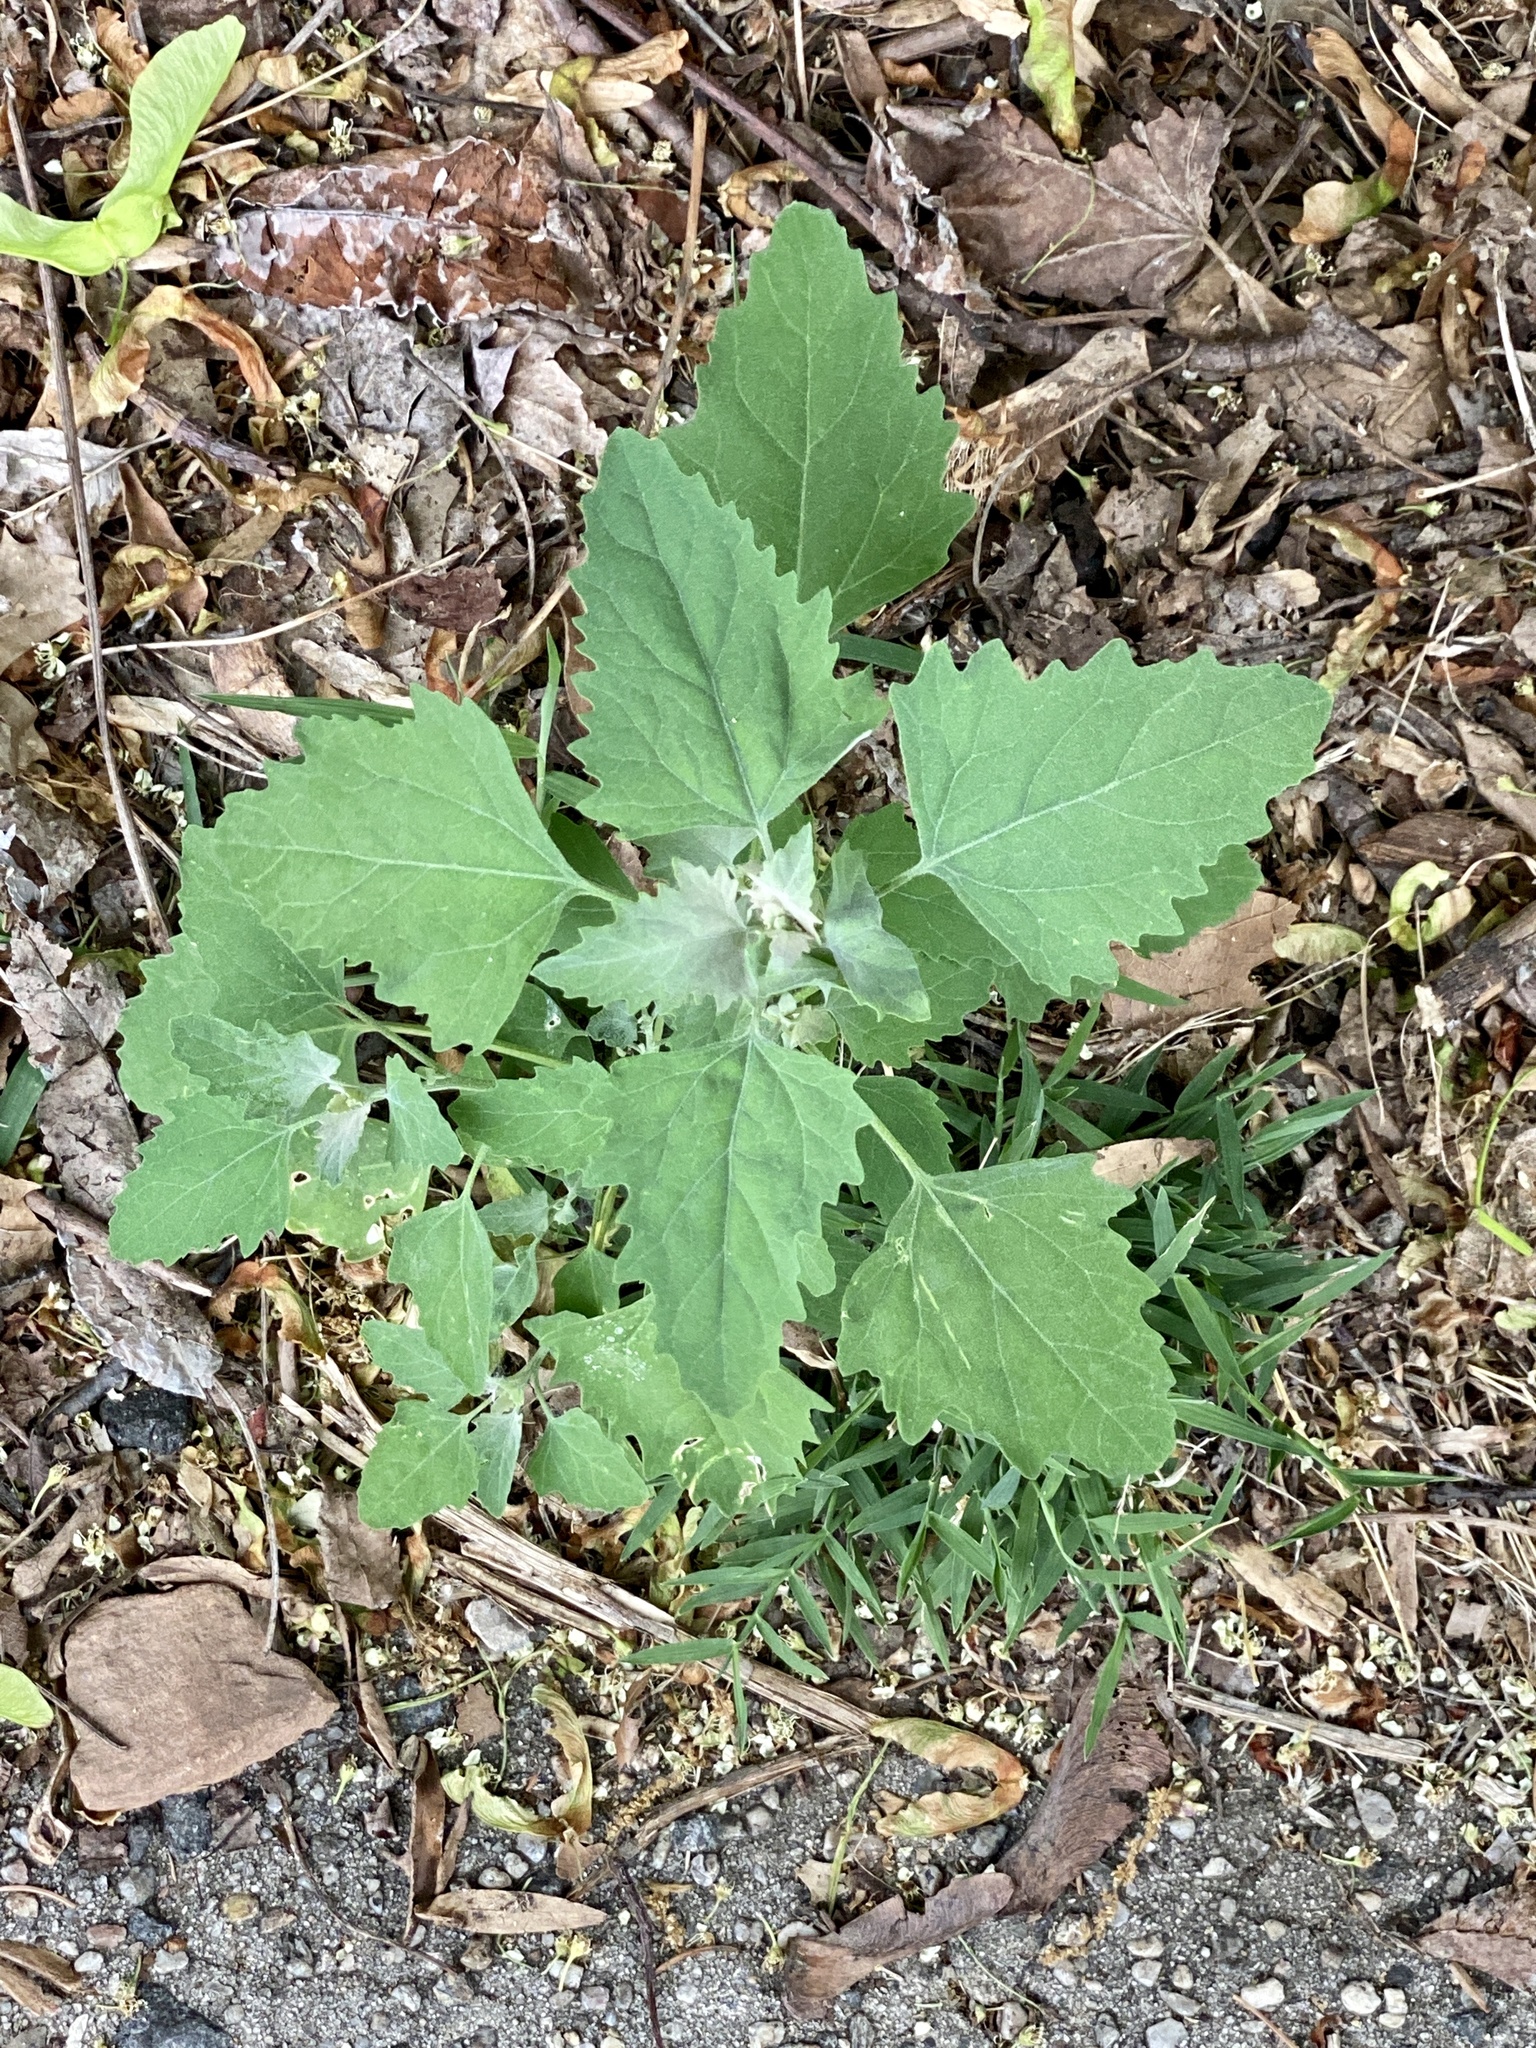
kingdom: Plantae
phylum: Tracheophyta
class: Magnoliopsida
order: Caryophyllales
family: Amaranthaceae
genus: Chenopodium
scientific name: Chenopodium album
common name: Fat-hen
